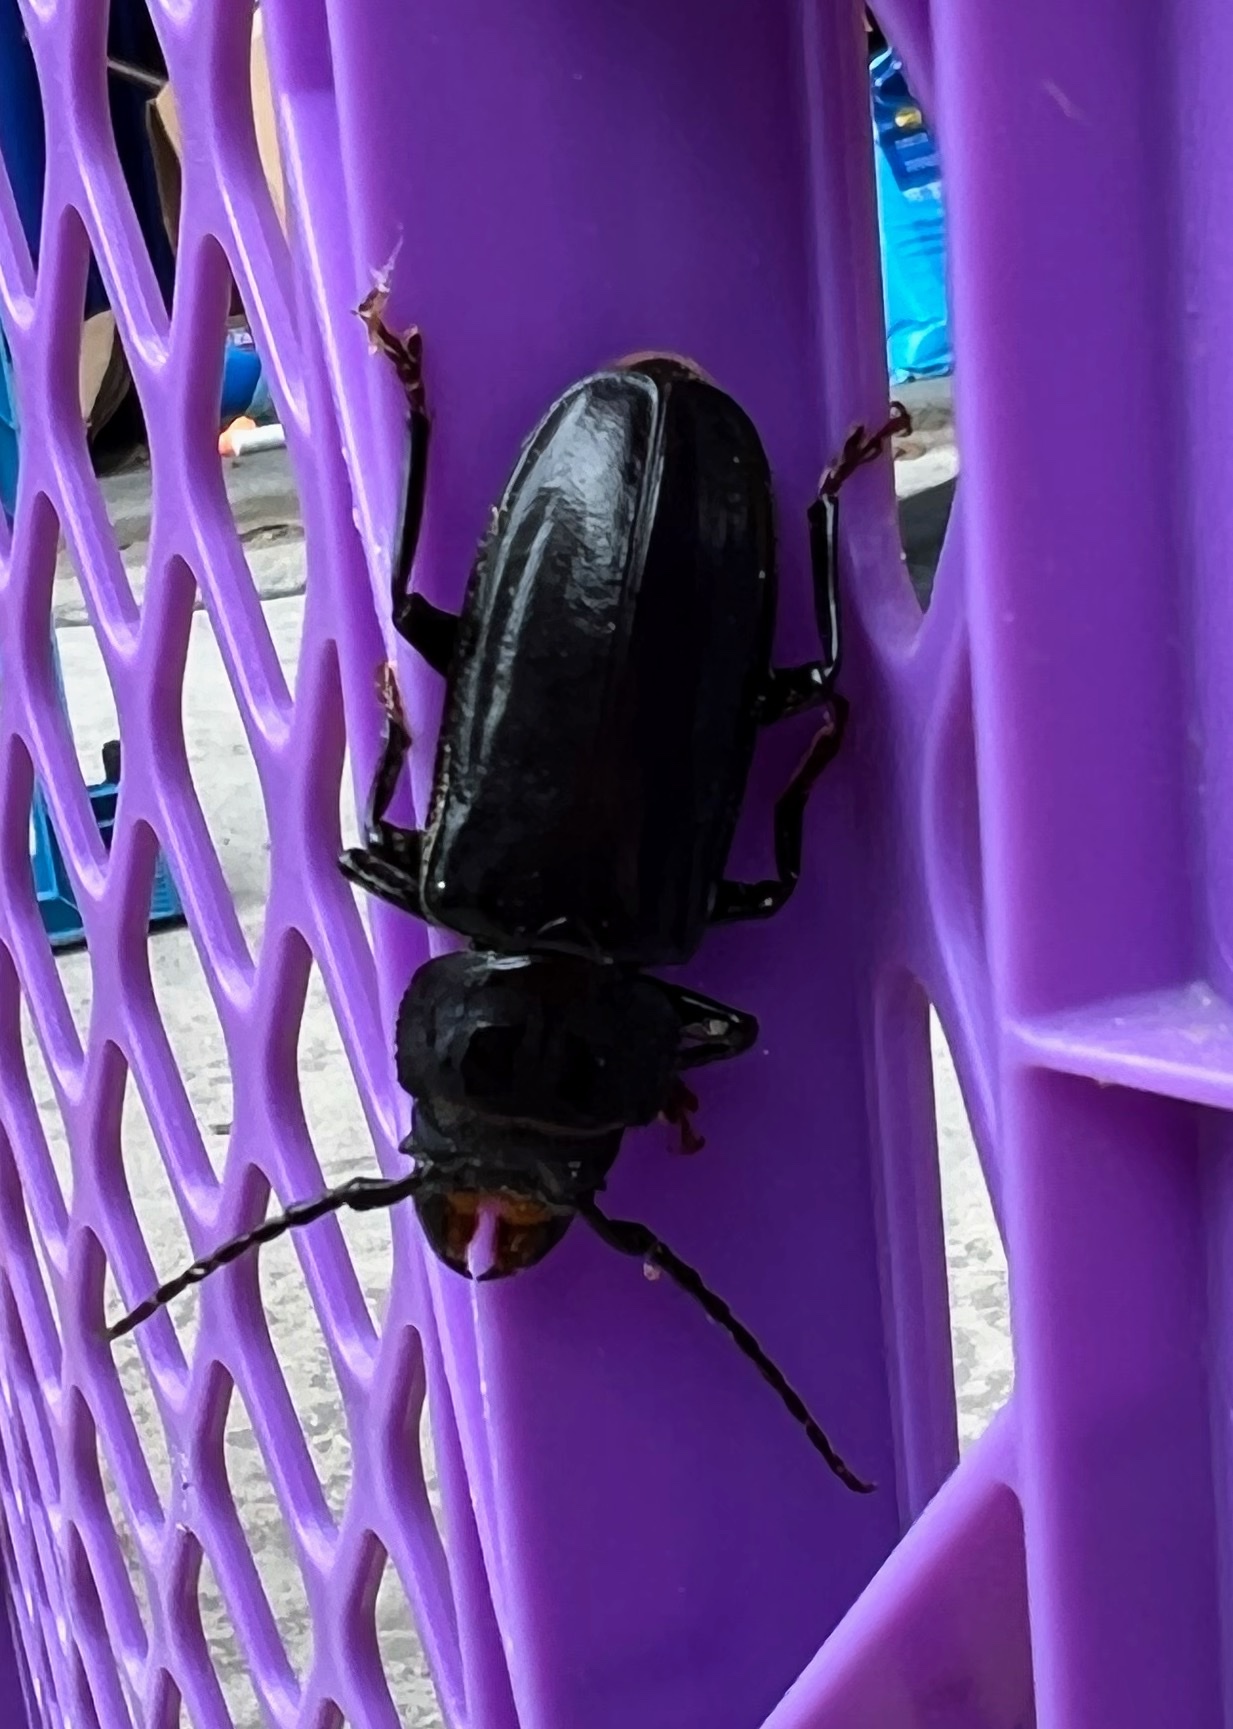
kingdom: Animalia
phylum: Arthropoda
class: Insecta
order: Coleoptera
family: Cerambycidae
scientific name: Cerambycidae
